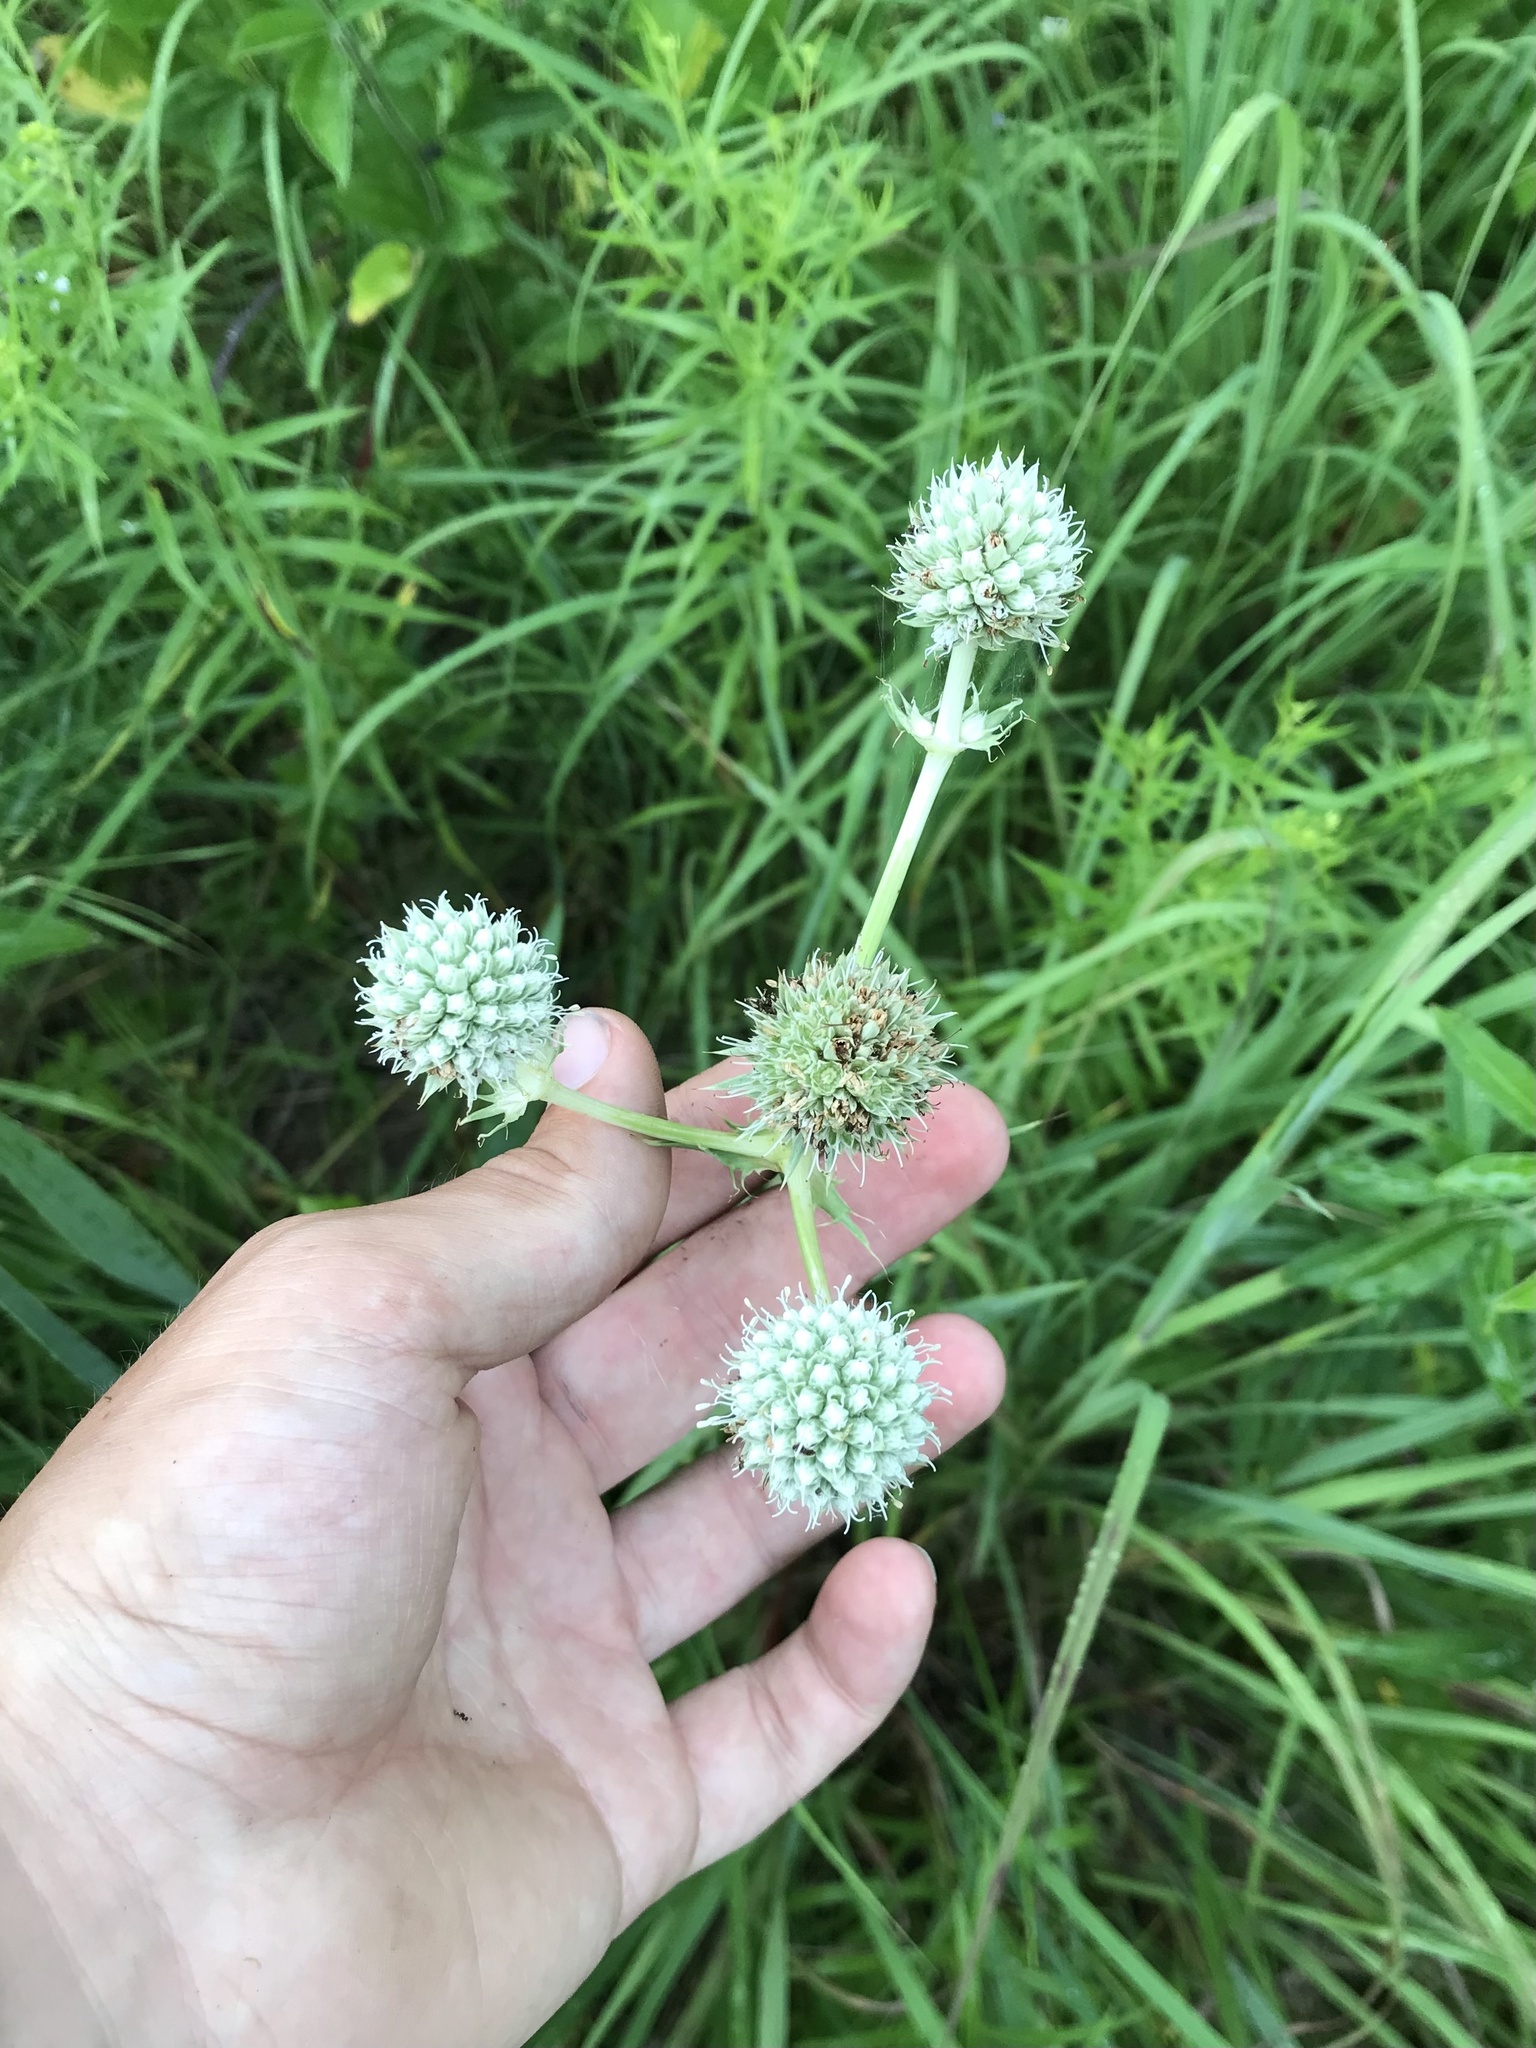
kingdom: Plantae
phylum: Tracheophyta
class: Magnoliopsida
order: Apiales
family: Apiaceae
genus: Eryngium
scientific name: Eryngium yuccifolium
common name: Button eryngo
